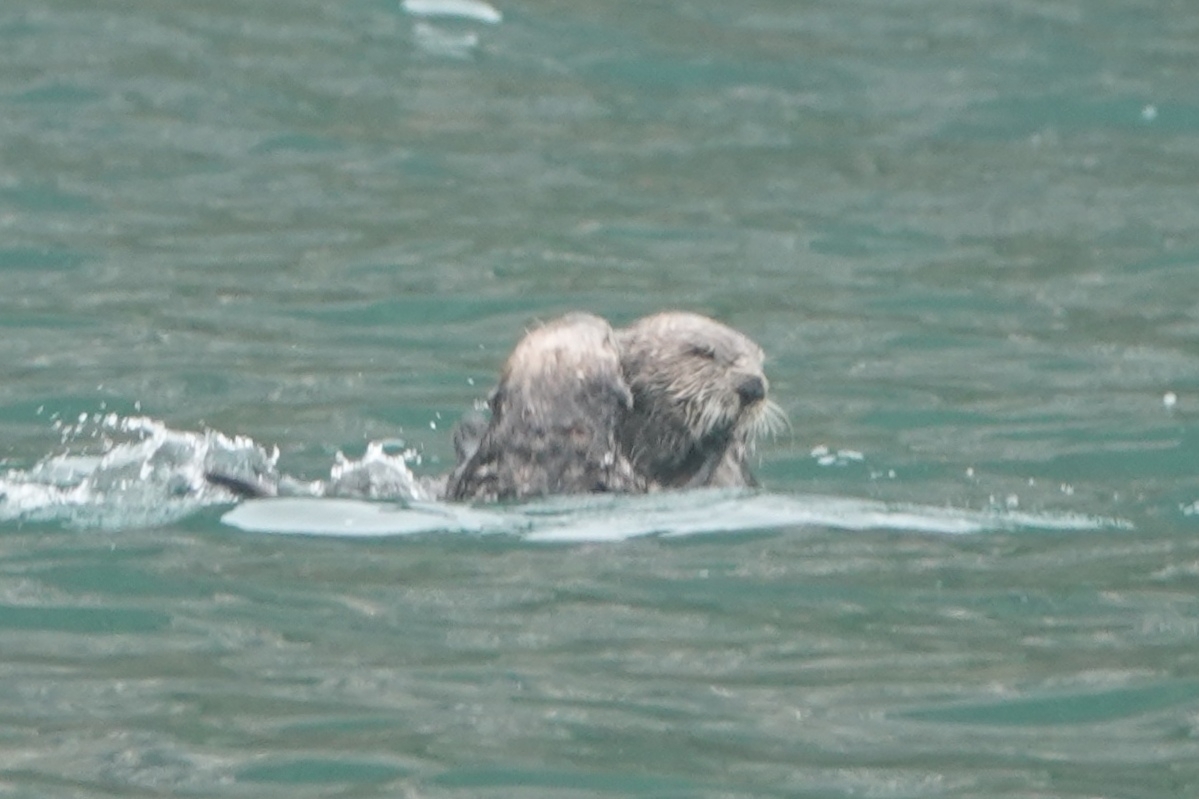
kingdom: Animalia
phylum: Chordata
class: Mammalia
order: Carnivora
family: Mustelidae
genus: Enhydra
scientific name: Enhydra lutris
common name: Sea otter
